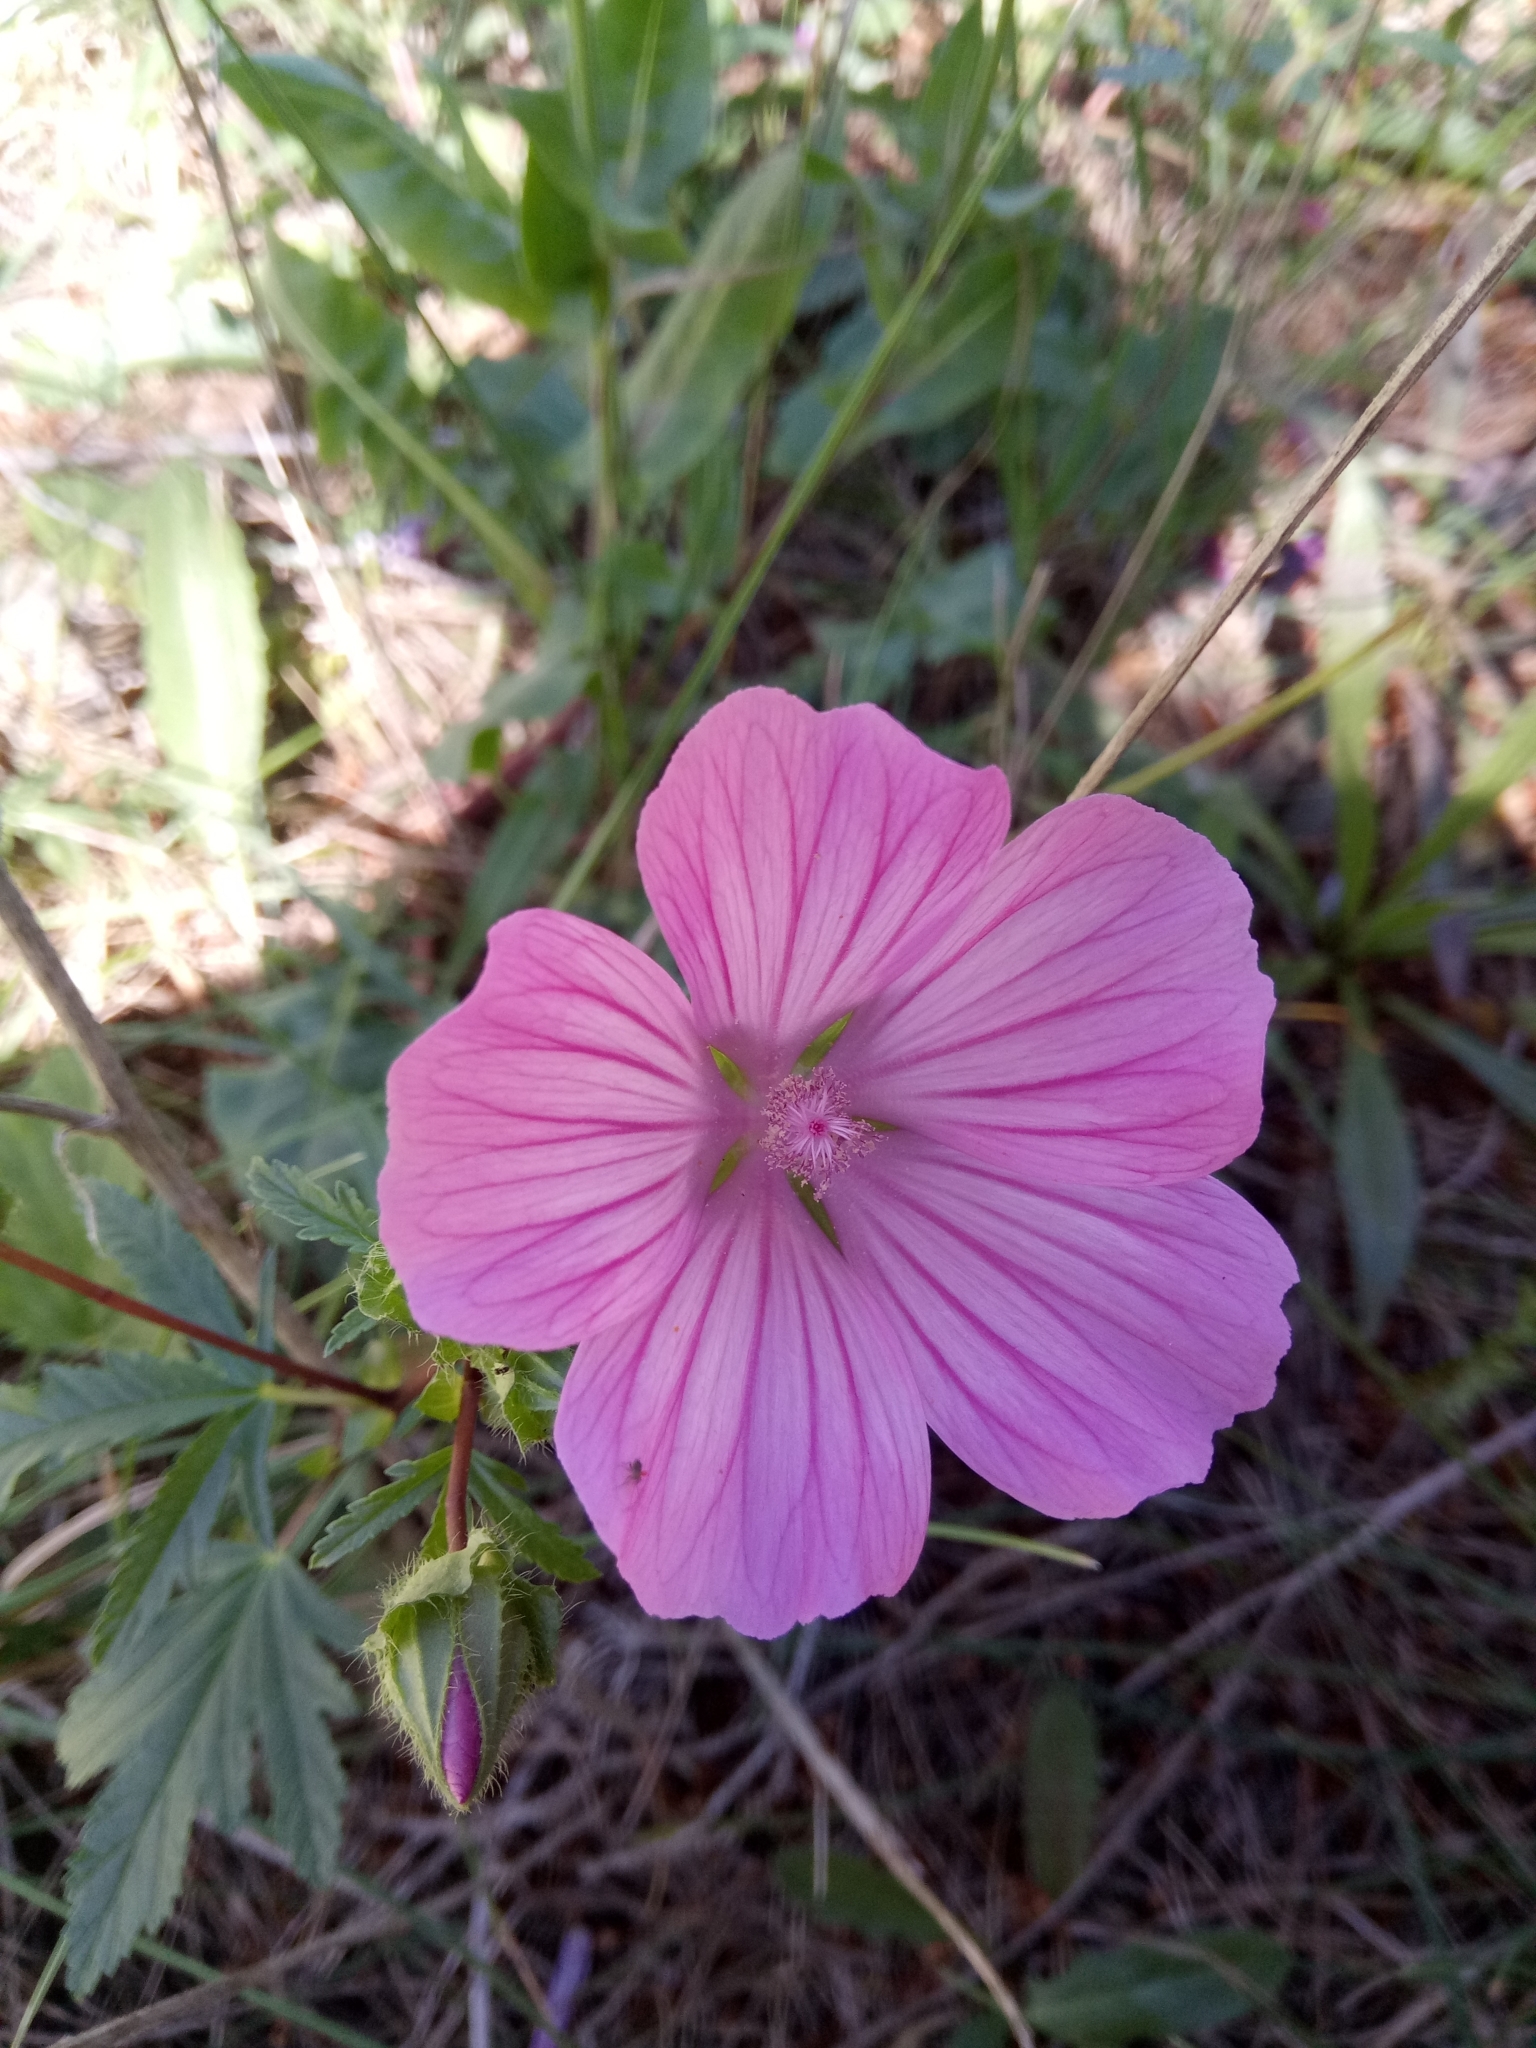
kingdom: Plantae
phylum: Tracheophyta
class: Magnoliopsida
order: Malvales
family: Malvaceae
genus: Malope
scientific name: Malope malacoides
